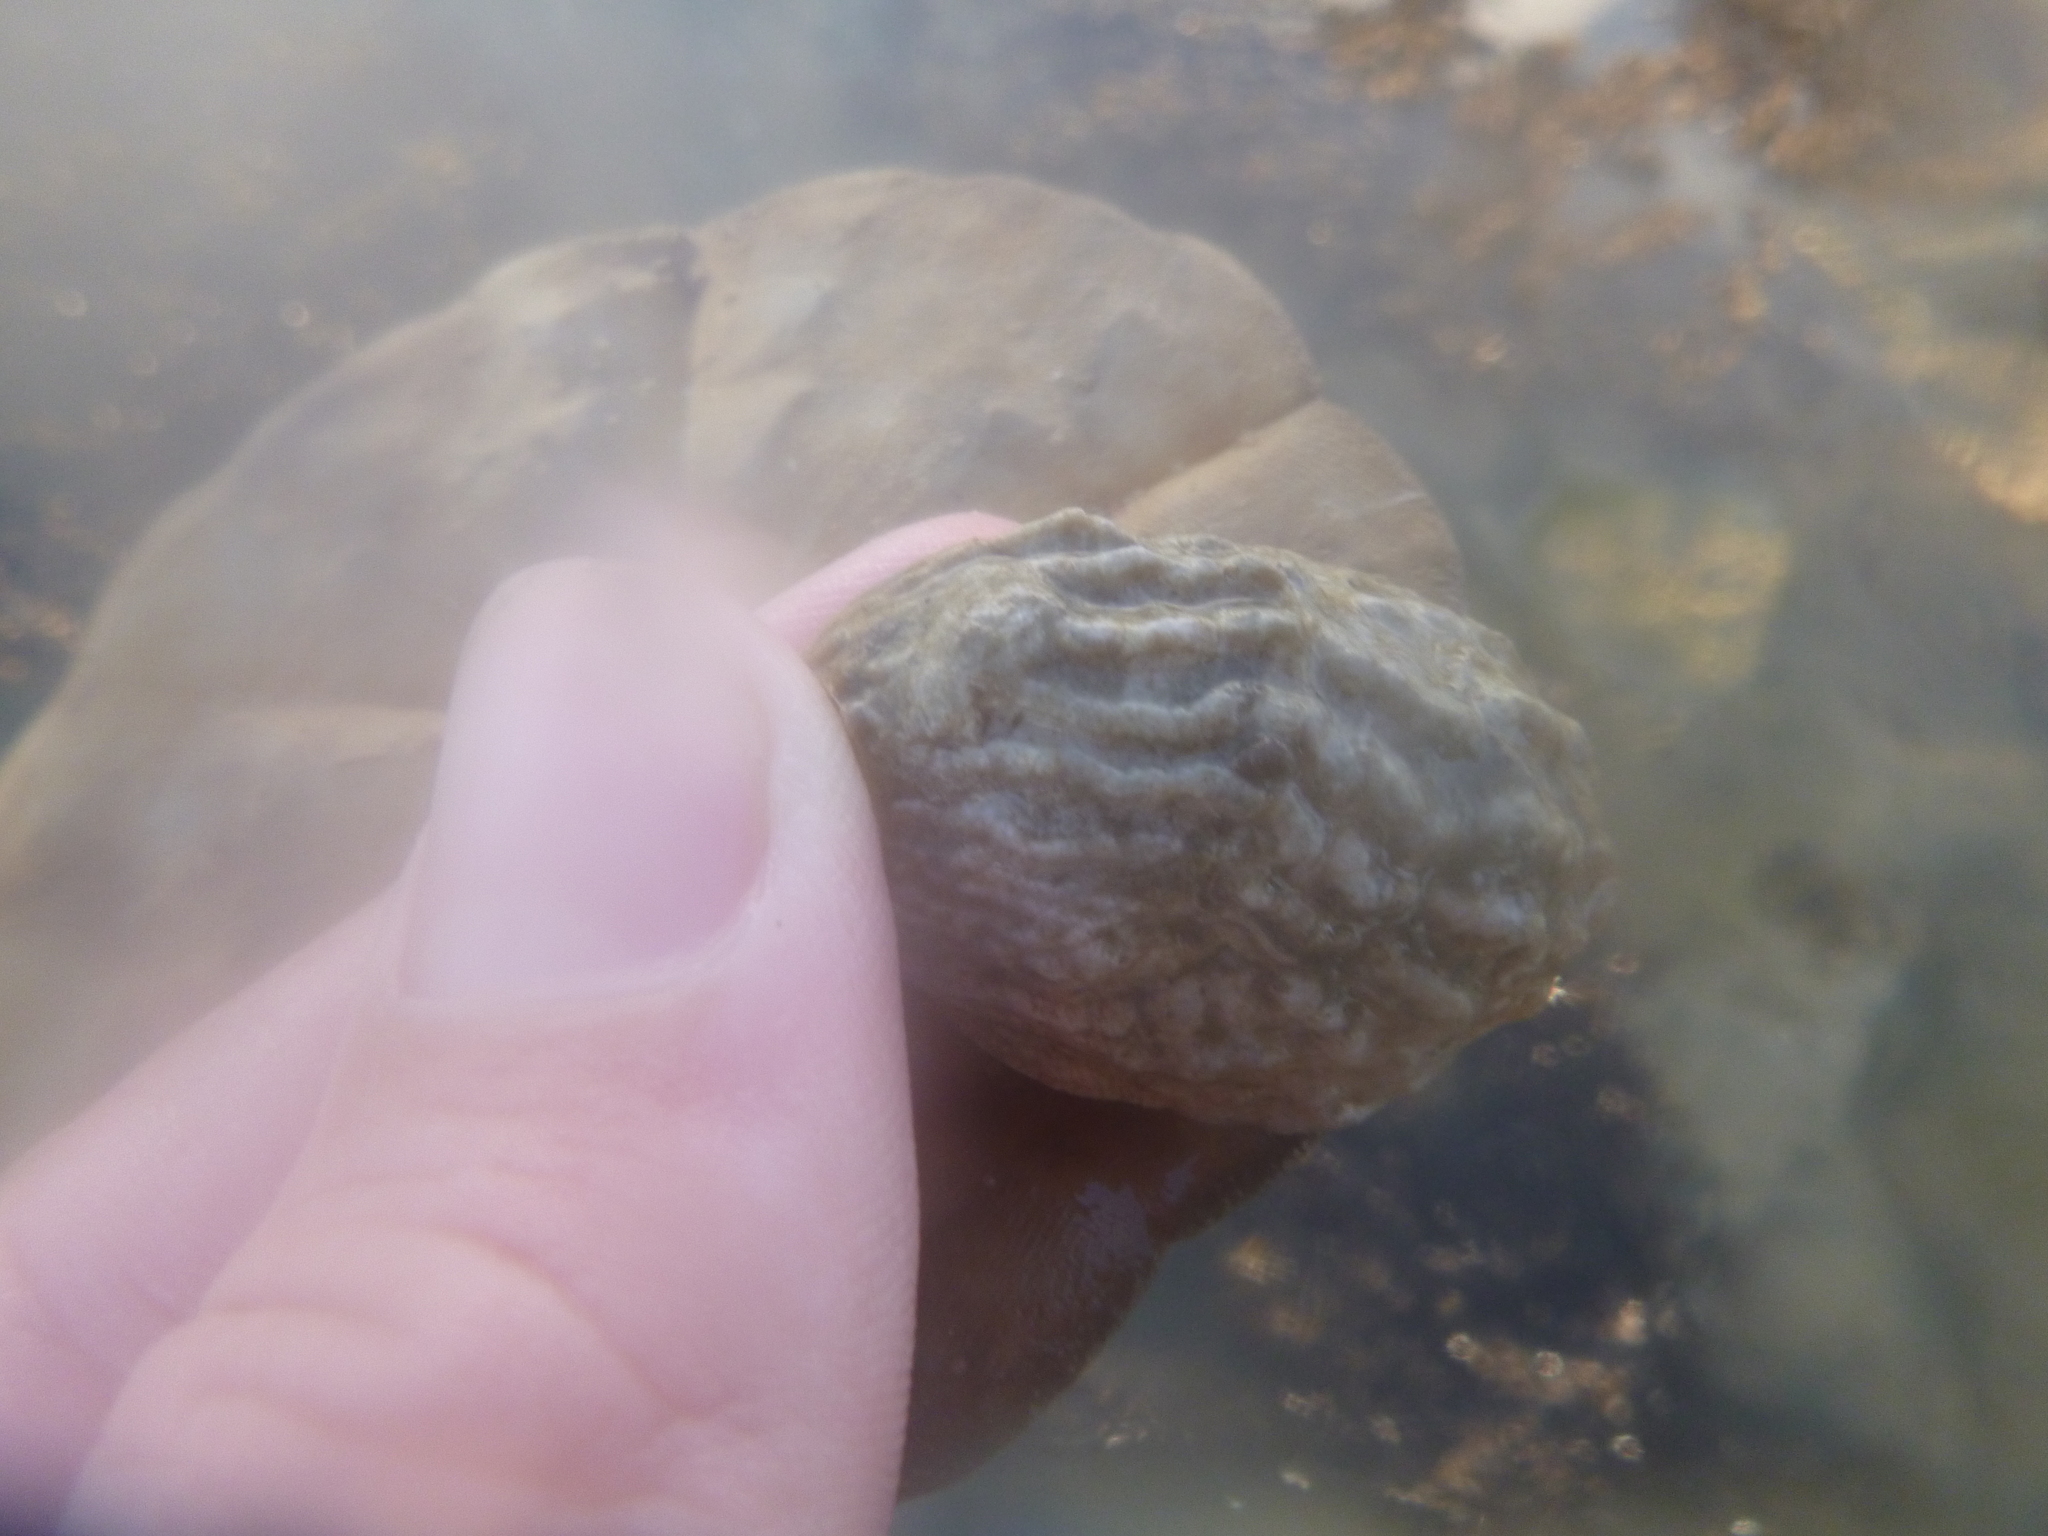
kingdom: Animalia
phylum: Mollusca
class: Gastropoda
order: Littorinimorpha
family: Calyptraeidae
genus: Maoricrypta
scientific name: Maoricrypta costata
